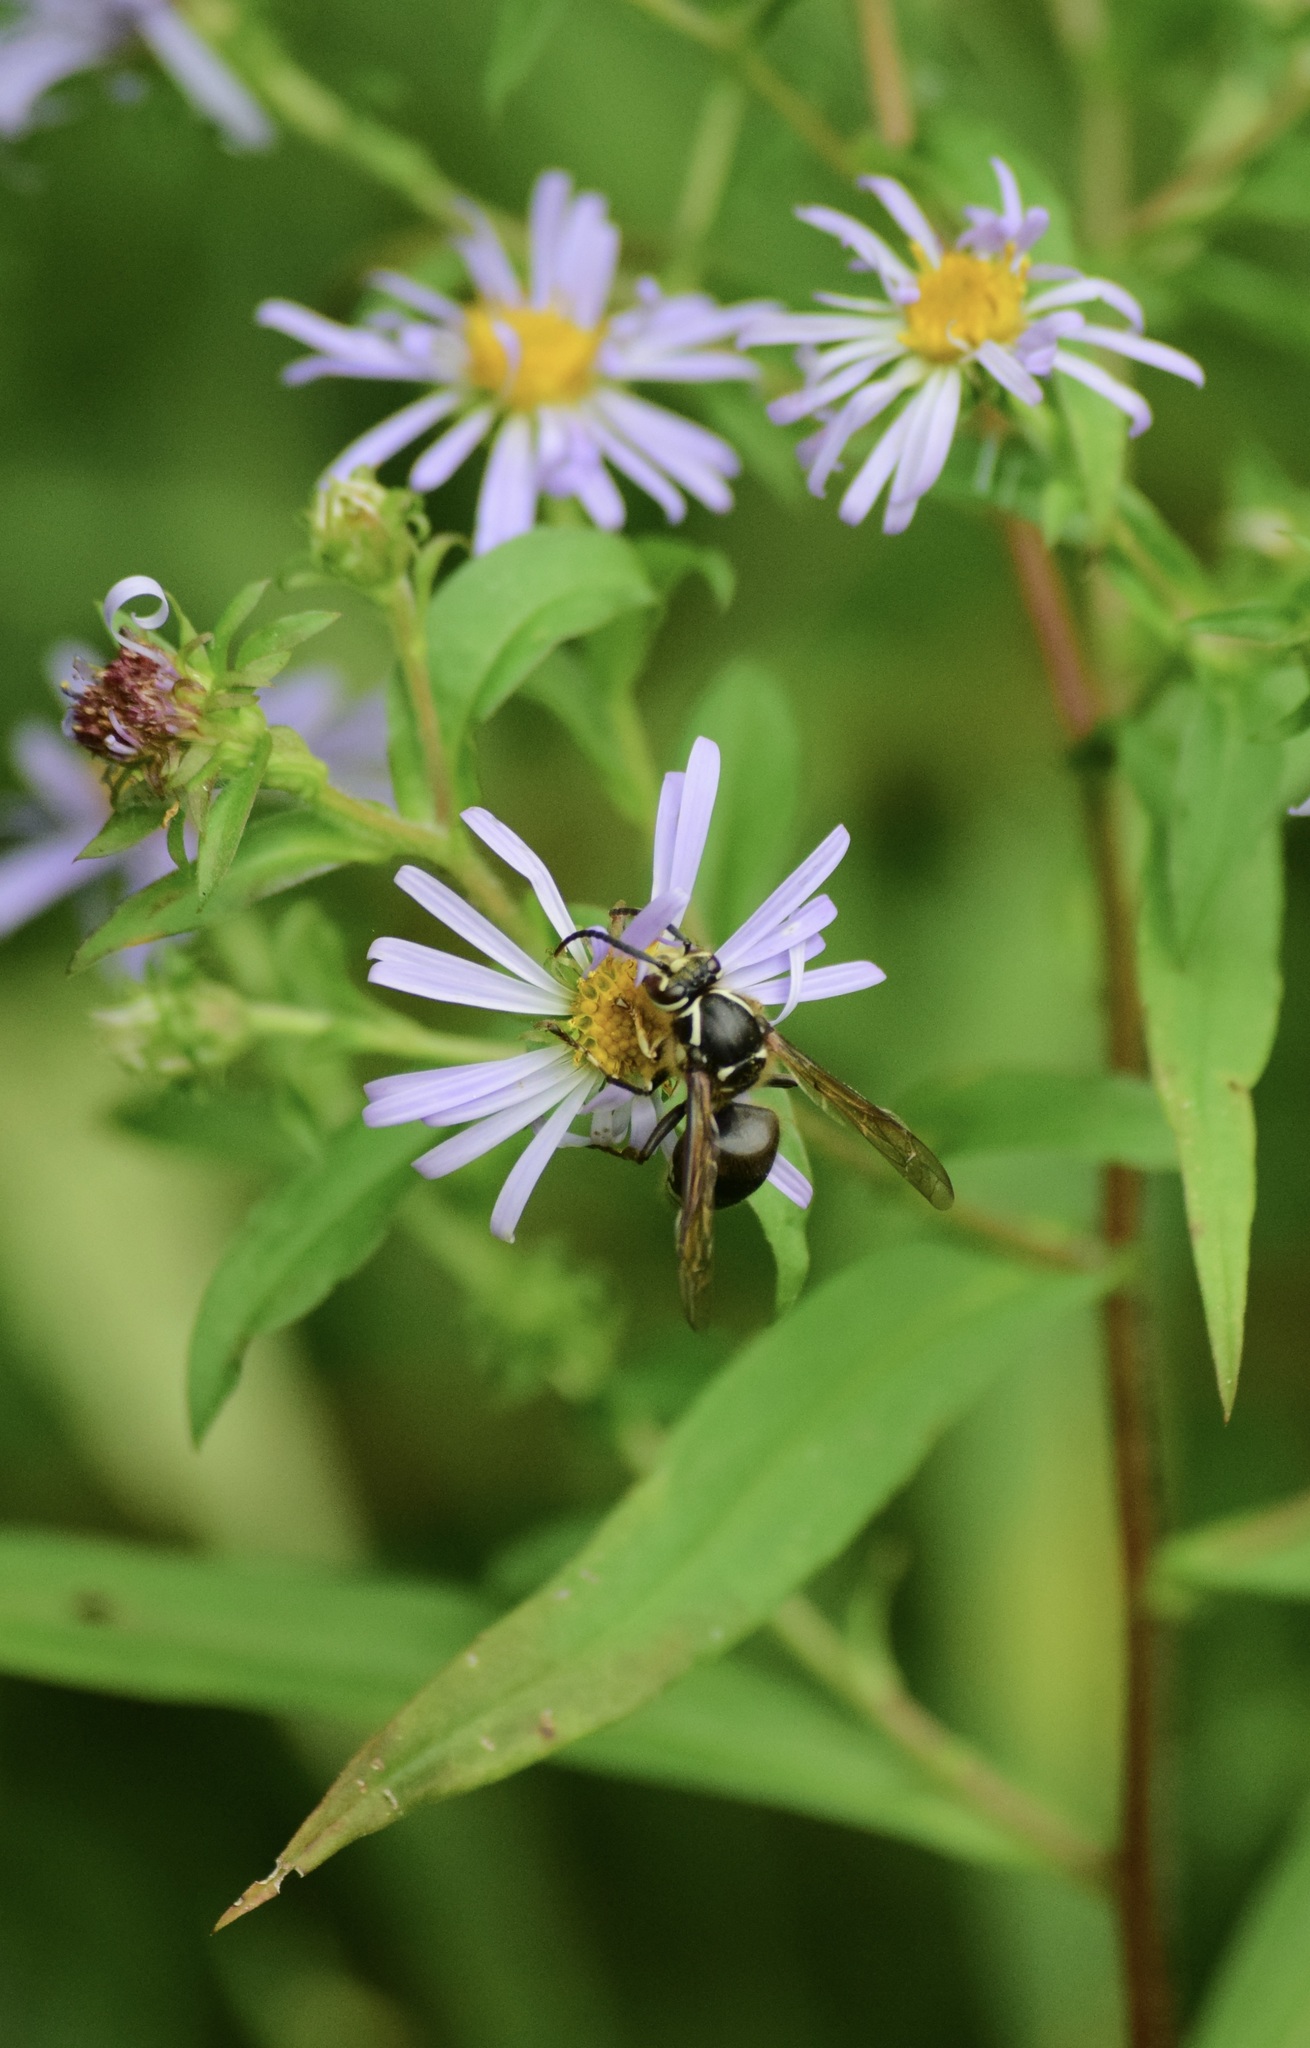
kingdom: Animalia
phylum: Arthropoda
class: Insecta
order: Hymenoptera
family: Vespidae
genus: Dolichovespula
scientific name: Dolichovespula maculata
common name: Bald-faced hornet
